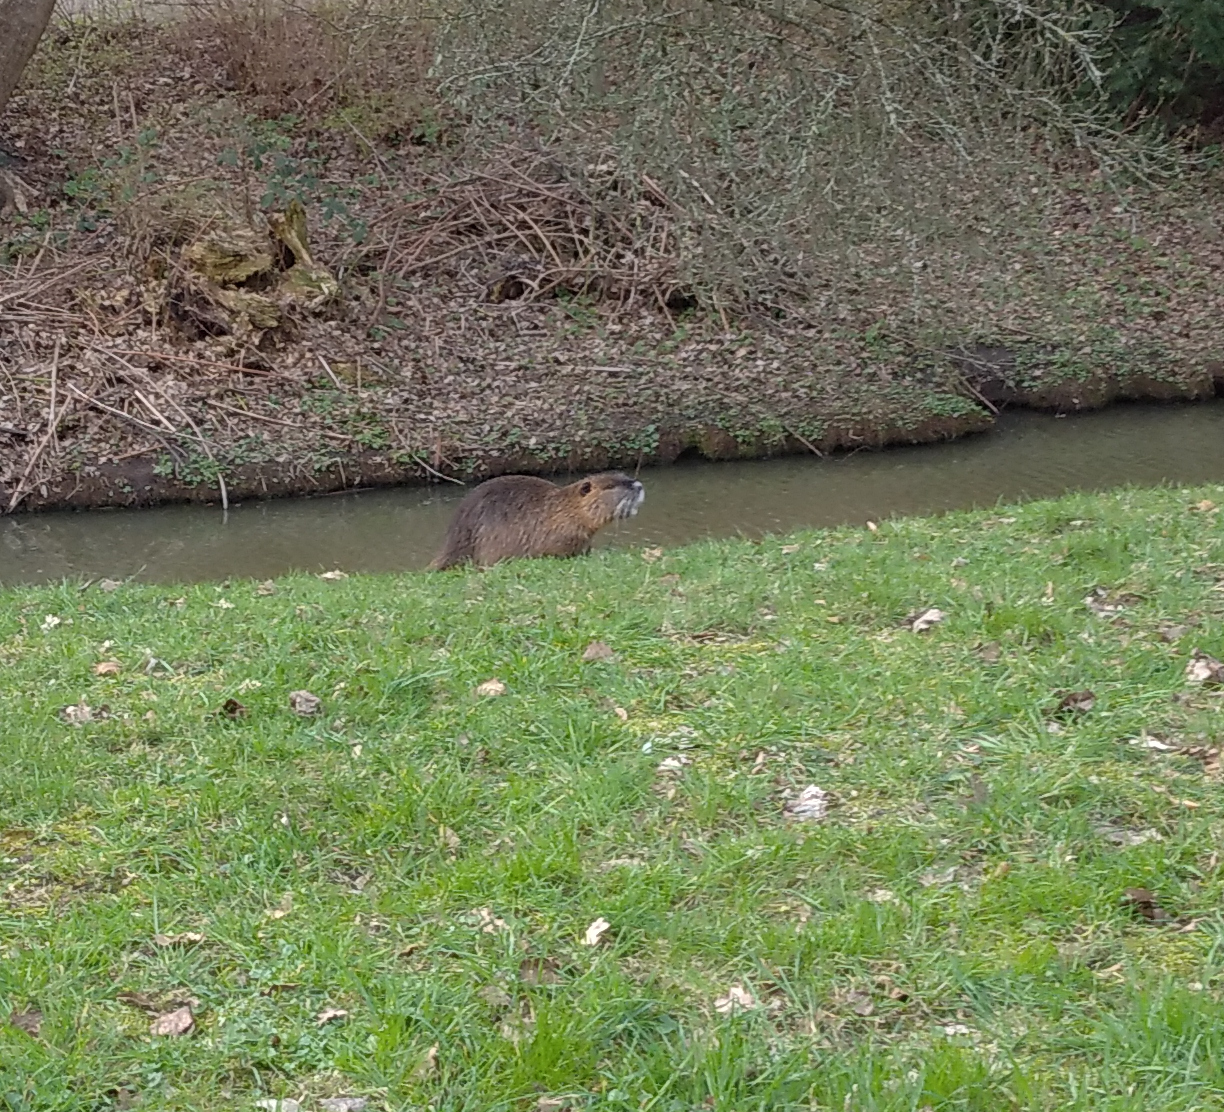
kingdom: Animalia
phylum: Chordata
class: Mammalia
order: Rodentia
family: Myocastoridae
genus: Myocastor
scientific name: Myocastor coypus
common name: Coypu
